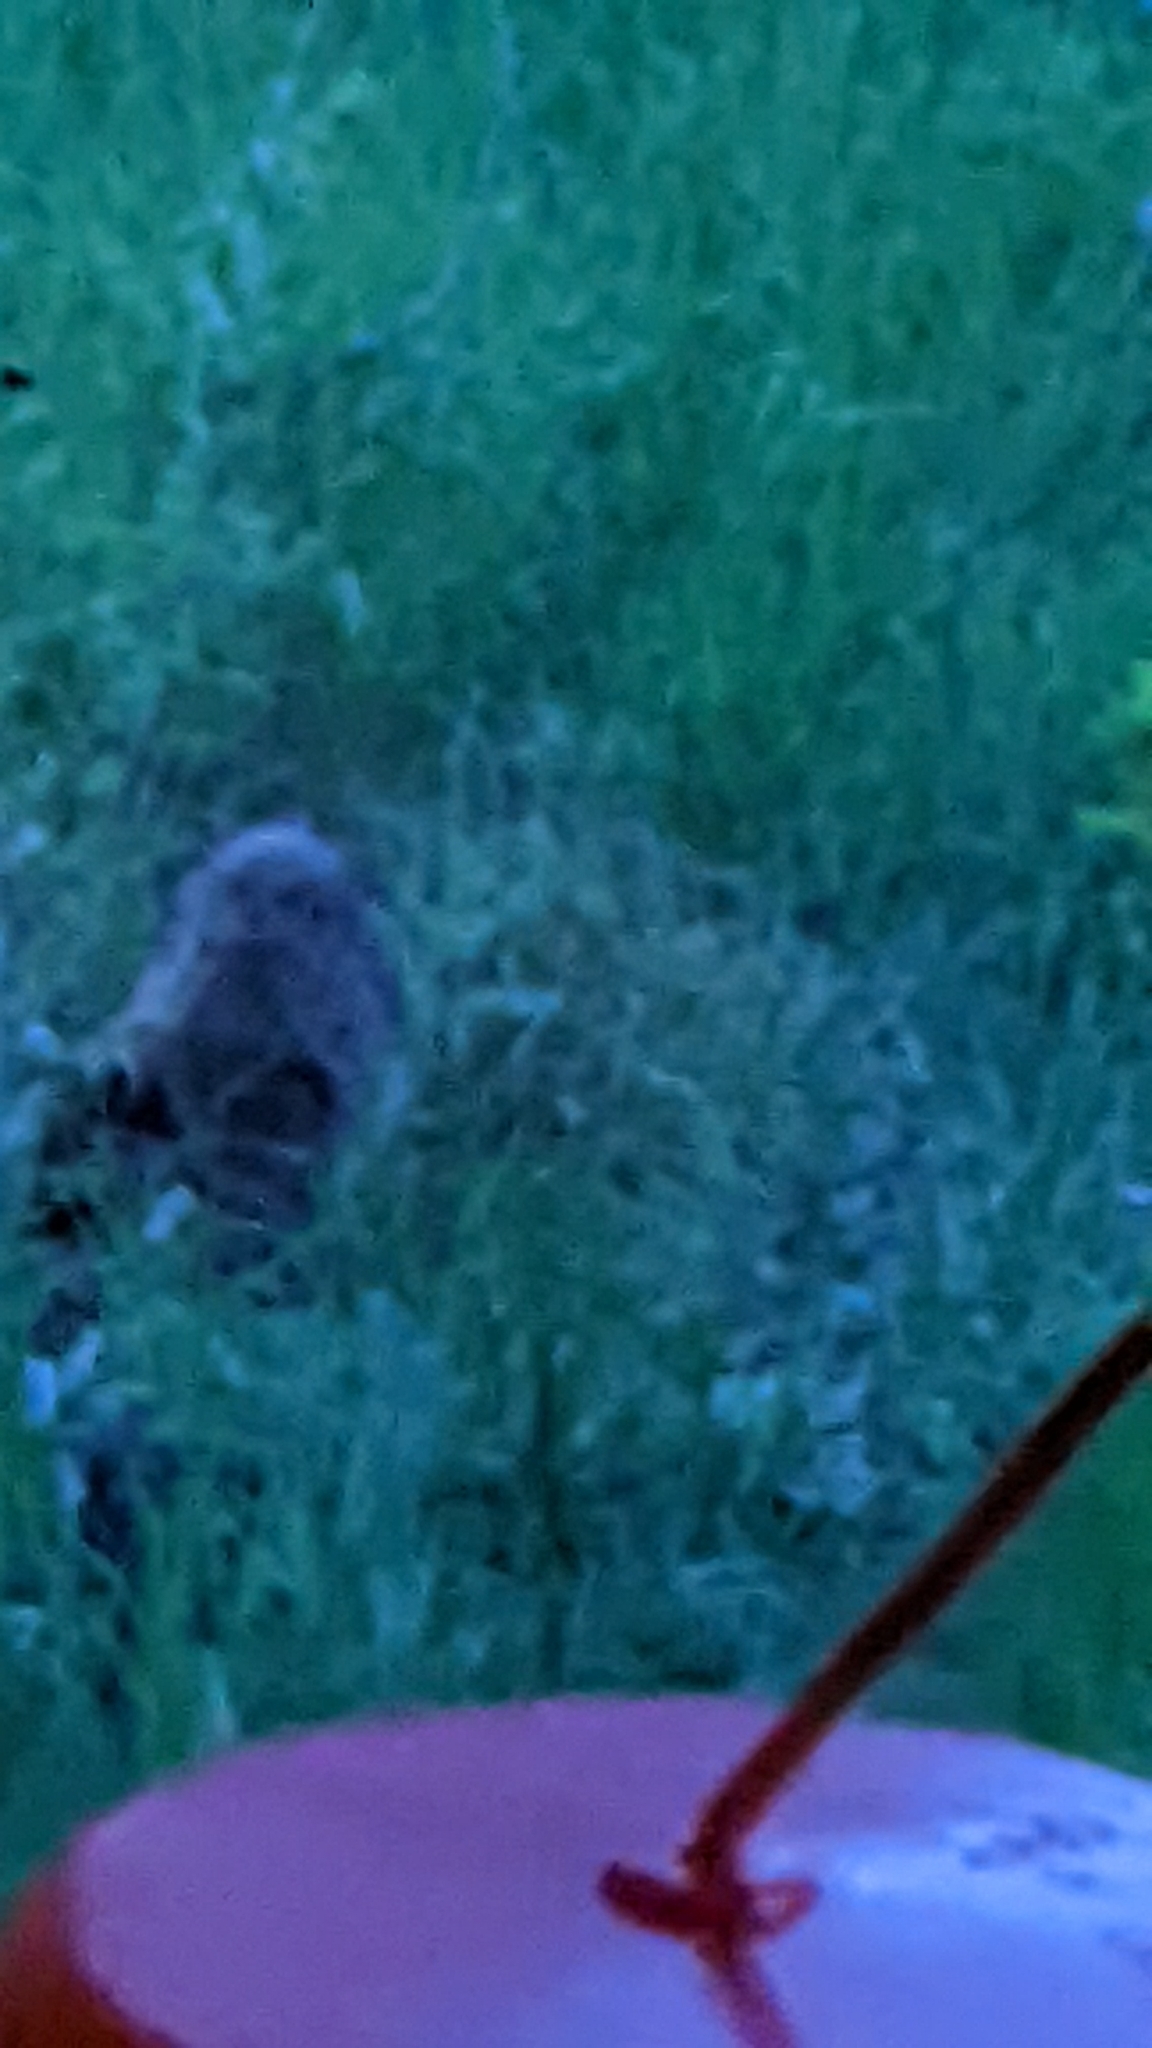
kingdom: Animalia
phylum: Chordata
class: Mammalia
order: Carnivora
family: Procyonidae
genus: Procyon
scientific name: Procyon lotor
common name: Raccoon
